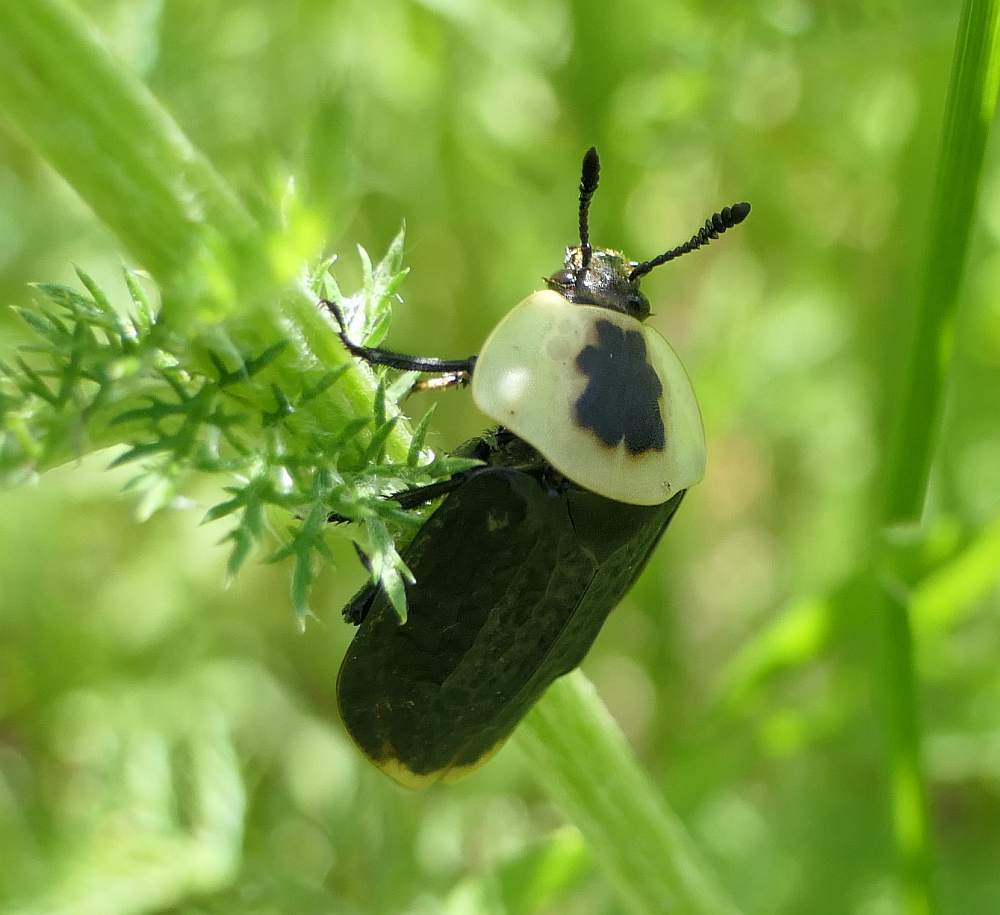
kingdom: Animalia
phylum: Arthropoda
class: Insecta
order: Coleoptera
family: Staphylinidae
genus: Necrophila
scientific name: Necrophila americana
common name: American carrion beetle
